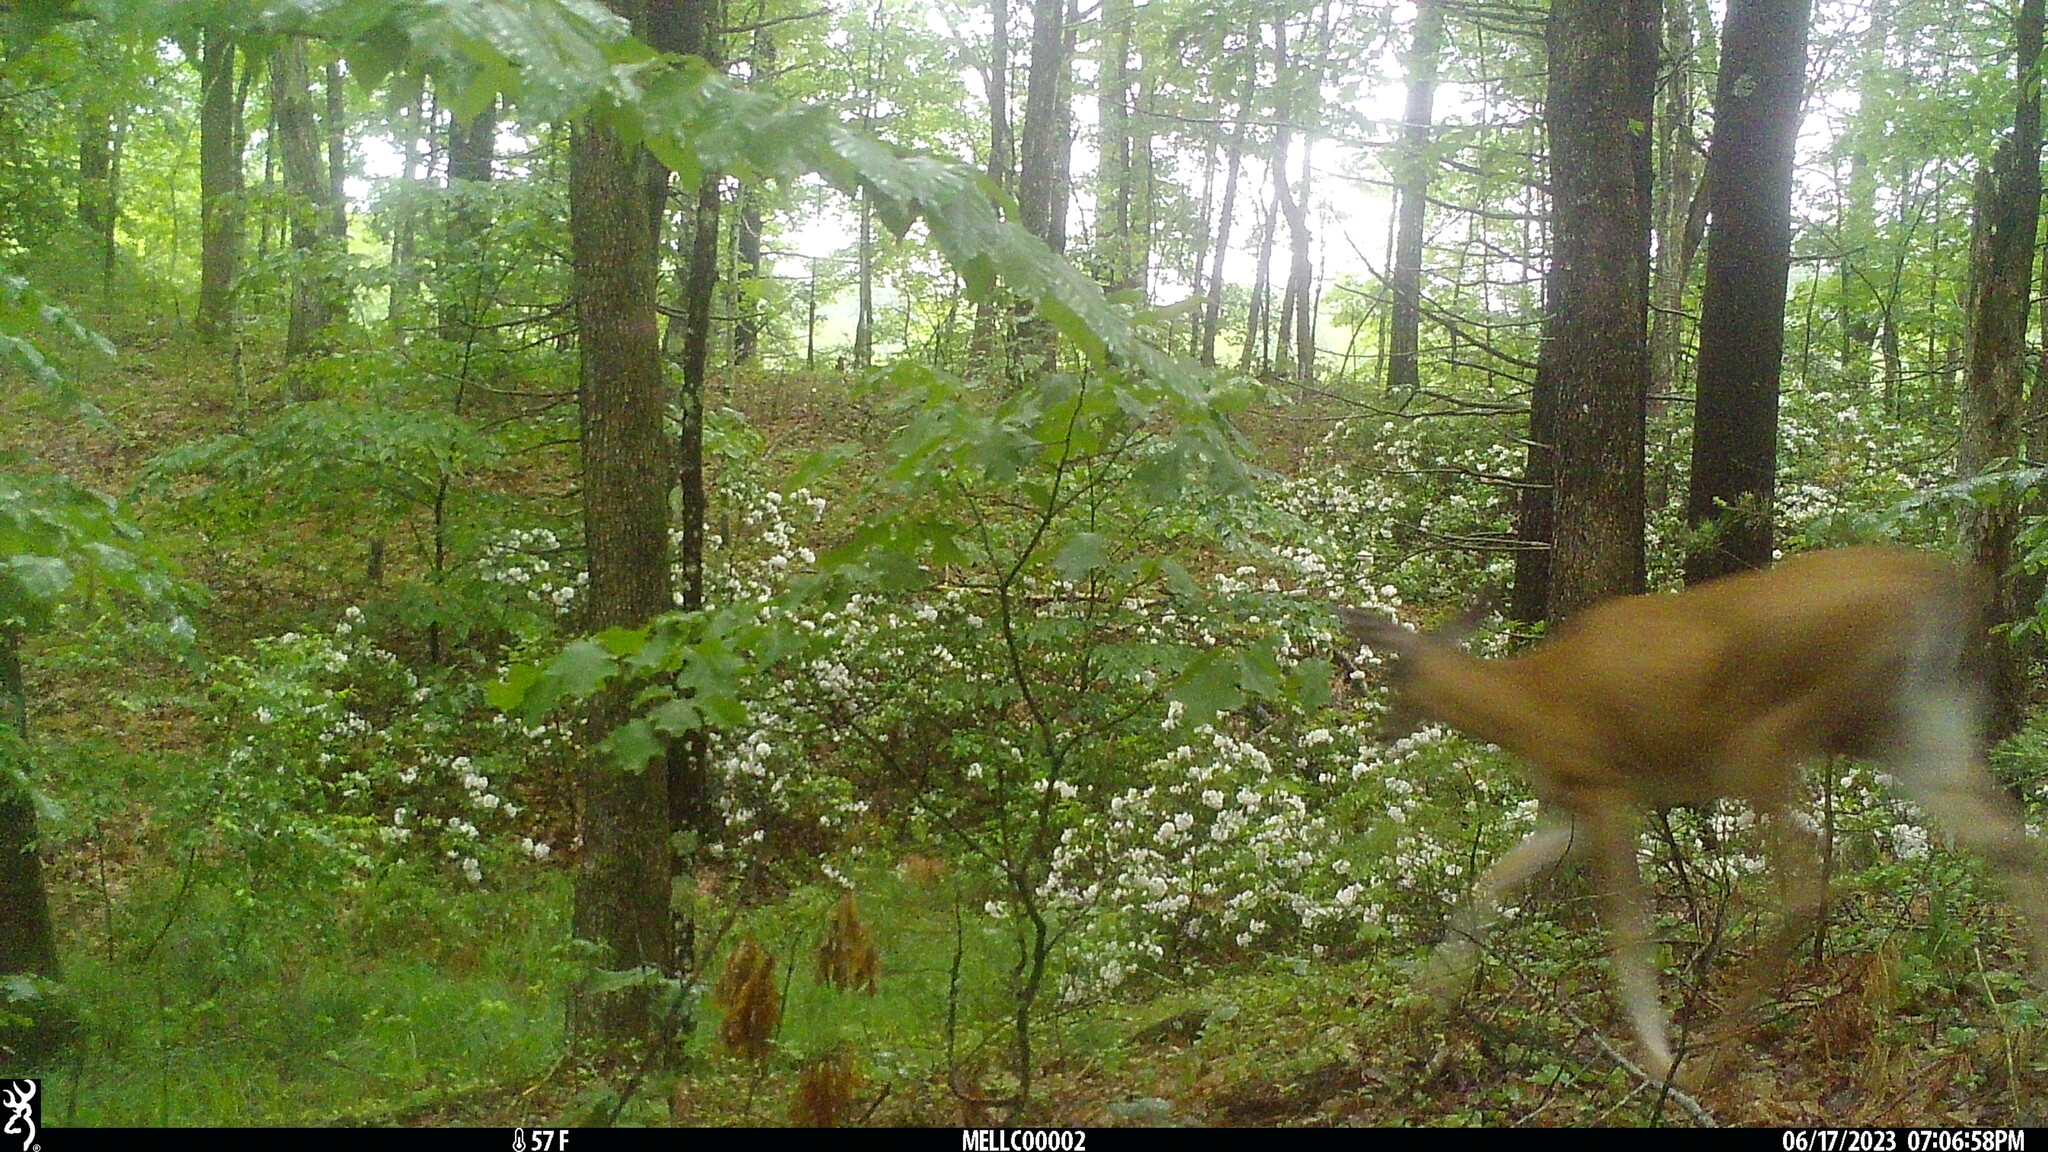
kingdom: Animalia
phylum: Chordata
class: Mammalia
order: Artiodactyla
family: Cervidae
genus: Odocoileus
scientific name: Odocoileus virginianus
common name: White-tailed deer
